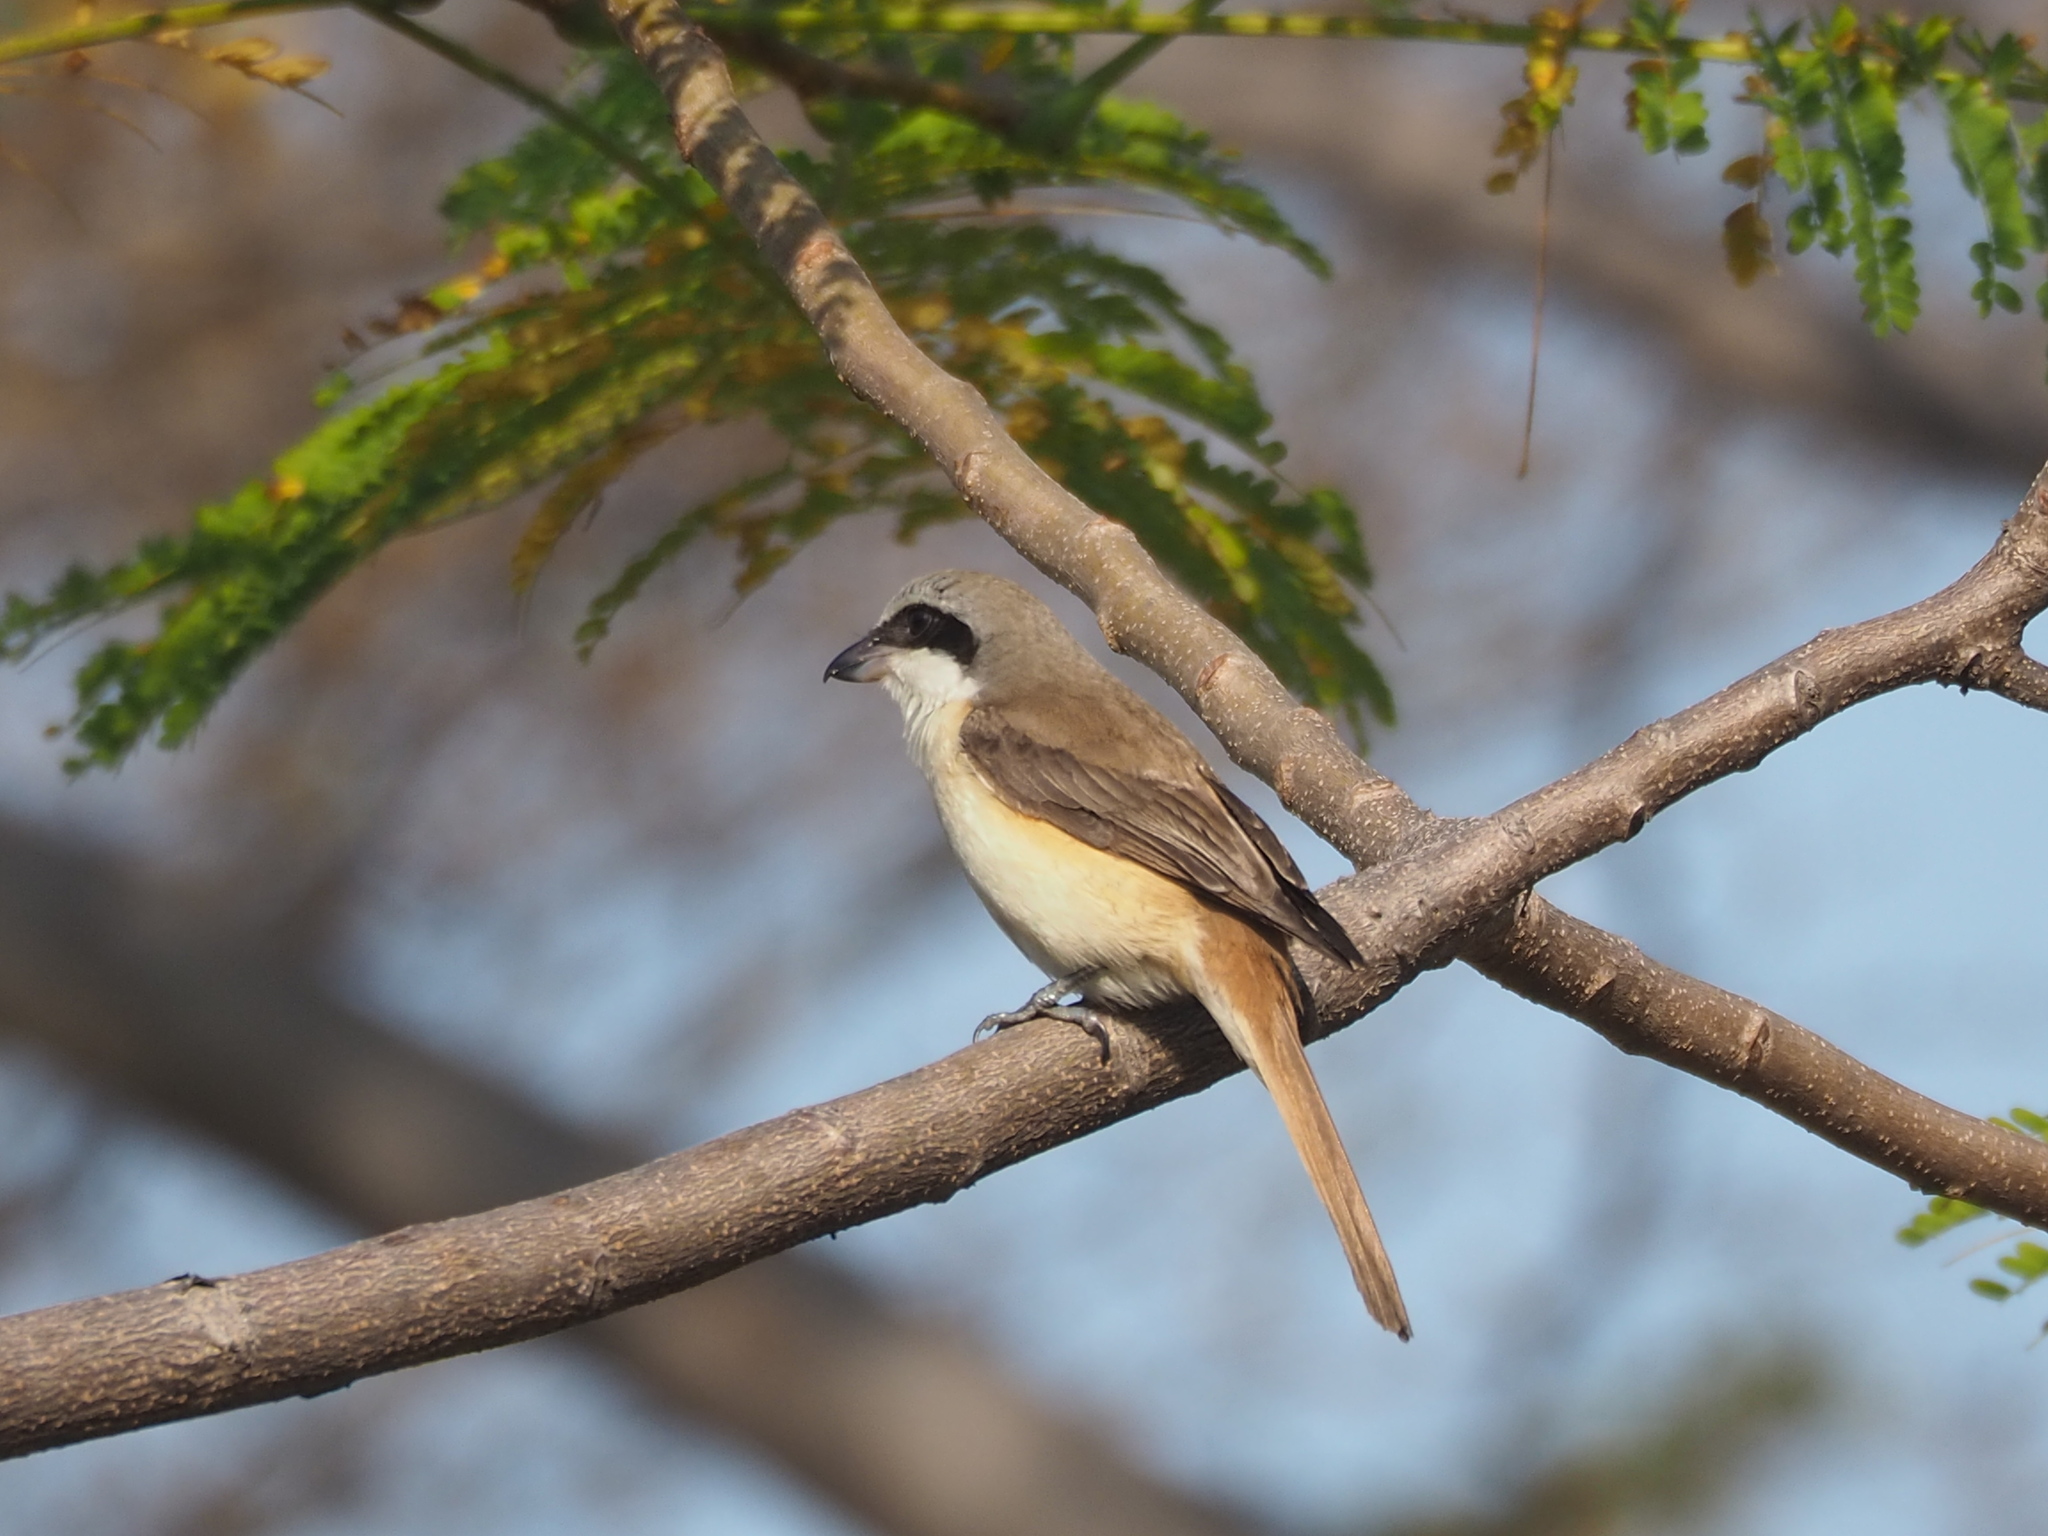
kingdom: Animalia
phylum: Chordata
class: Aves
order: Passeriformes
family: Laniidae
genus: Lanius
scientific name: Lanius cristatus
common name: Brown shrike
